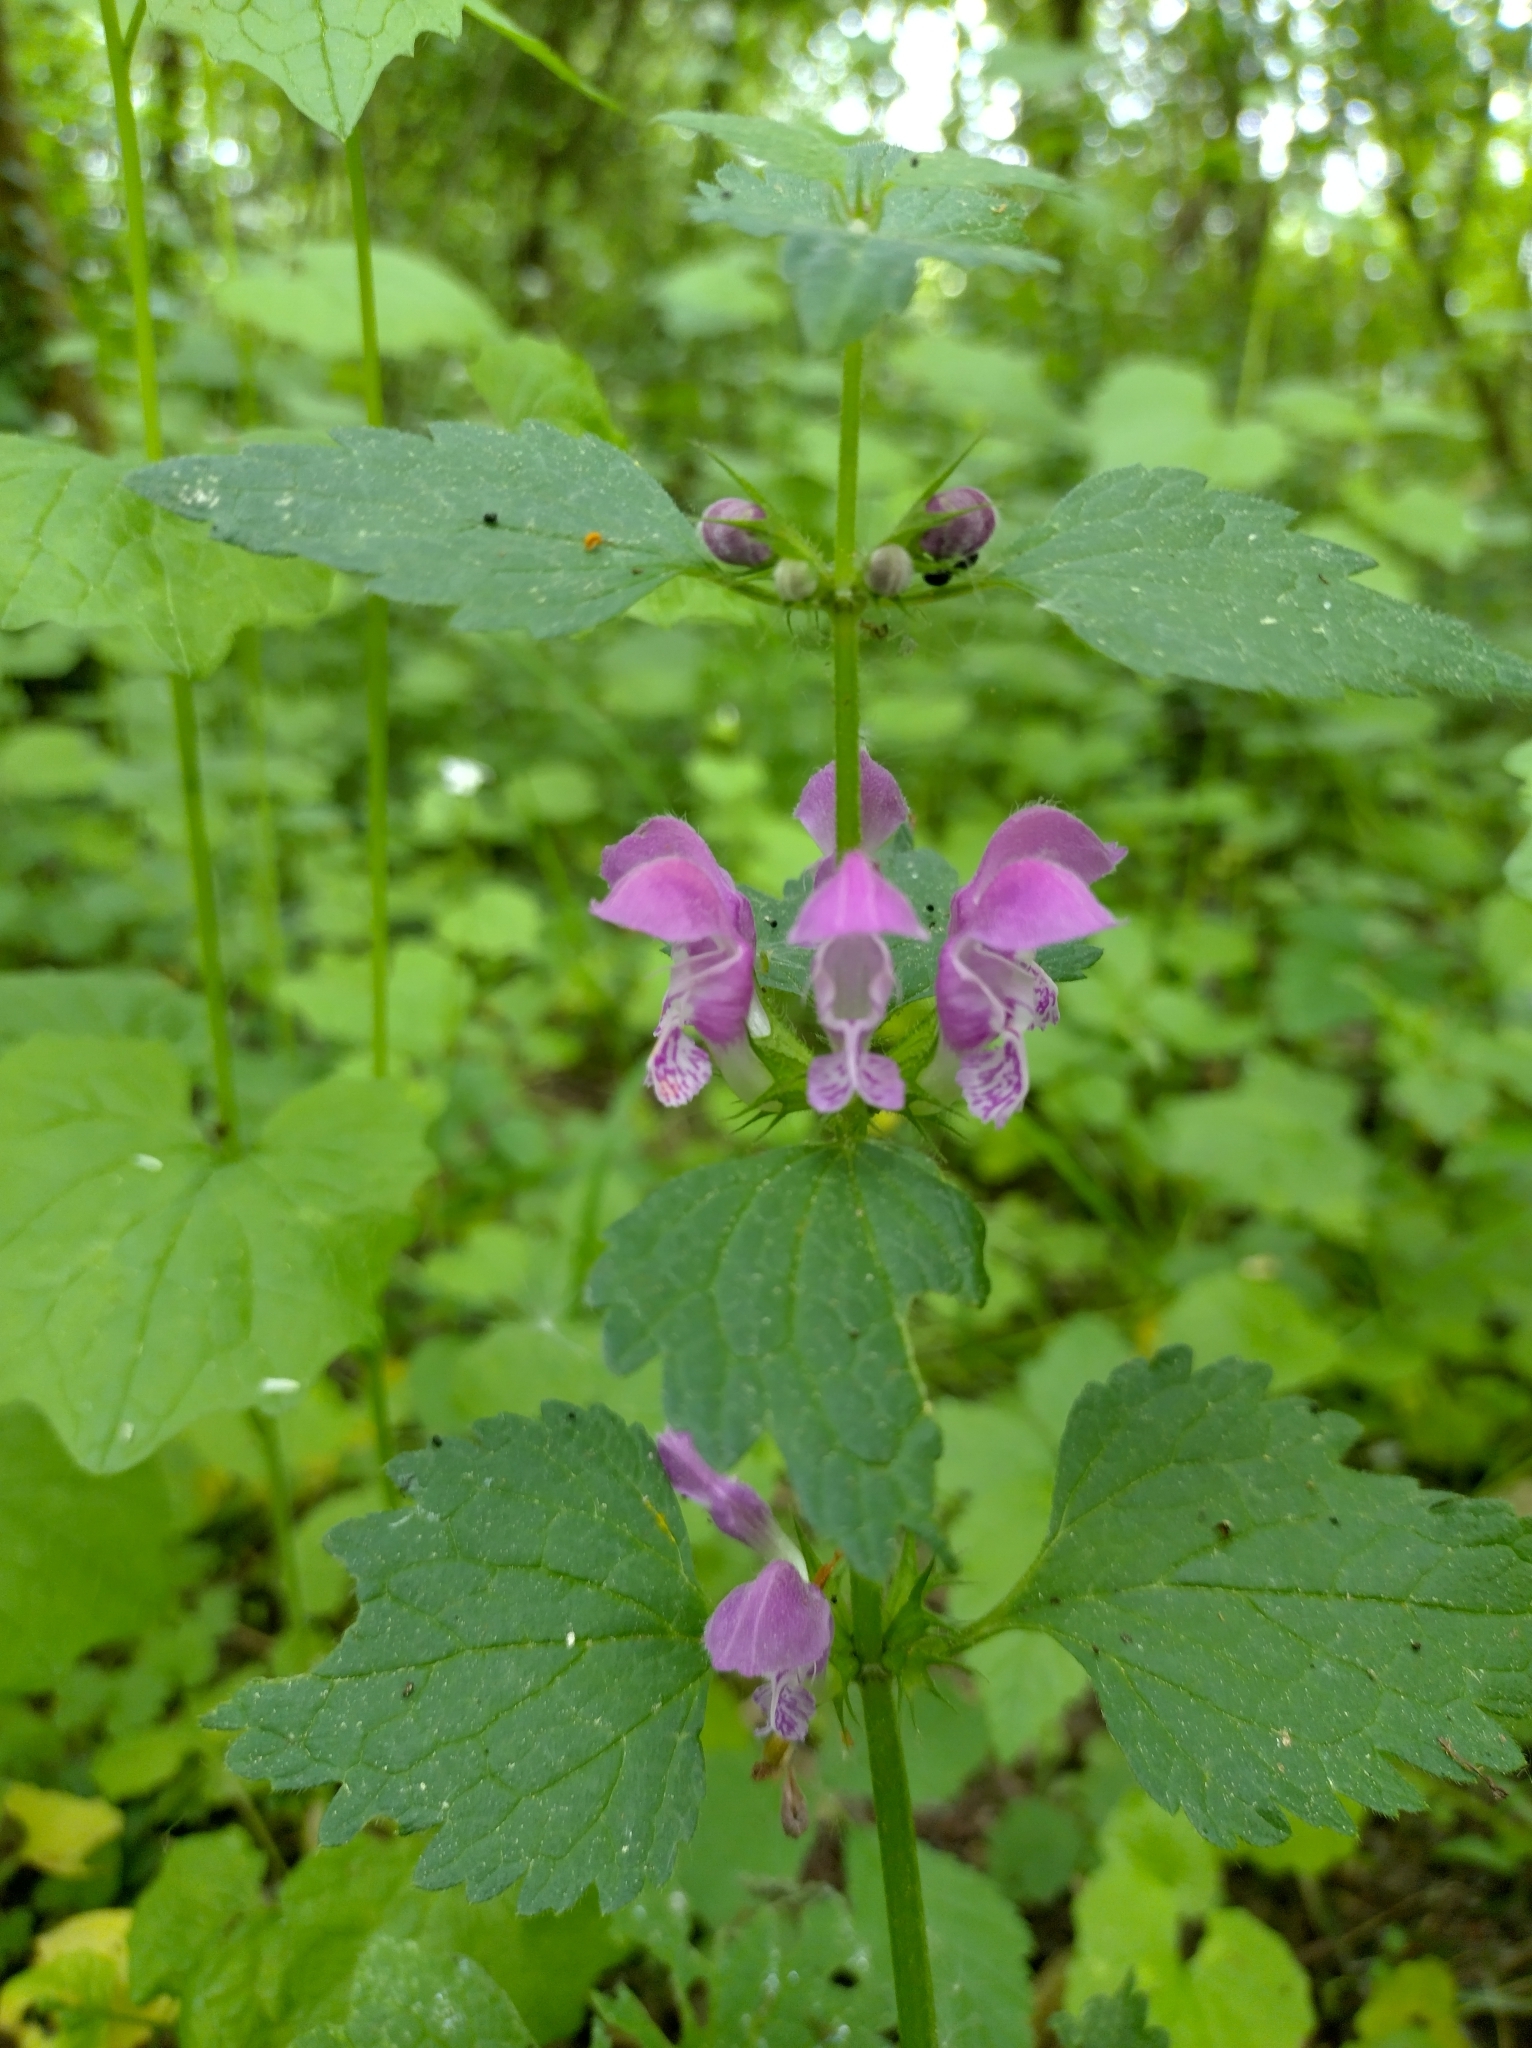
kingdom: Plantae
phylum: Tracheophyta
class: Magnoliopsida
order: Lamiales
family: Lamiaceae
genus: Lamium
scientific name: Lamium maculatum
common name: Spotted dead-nettle
